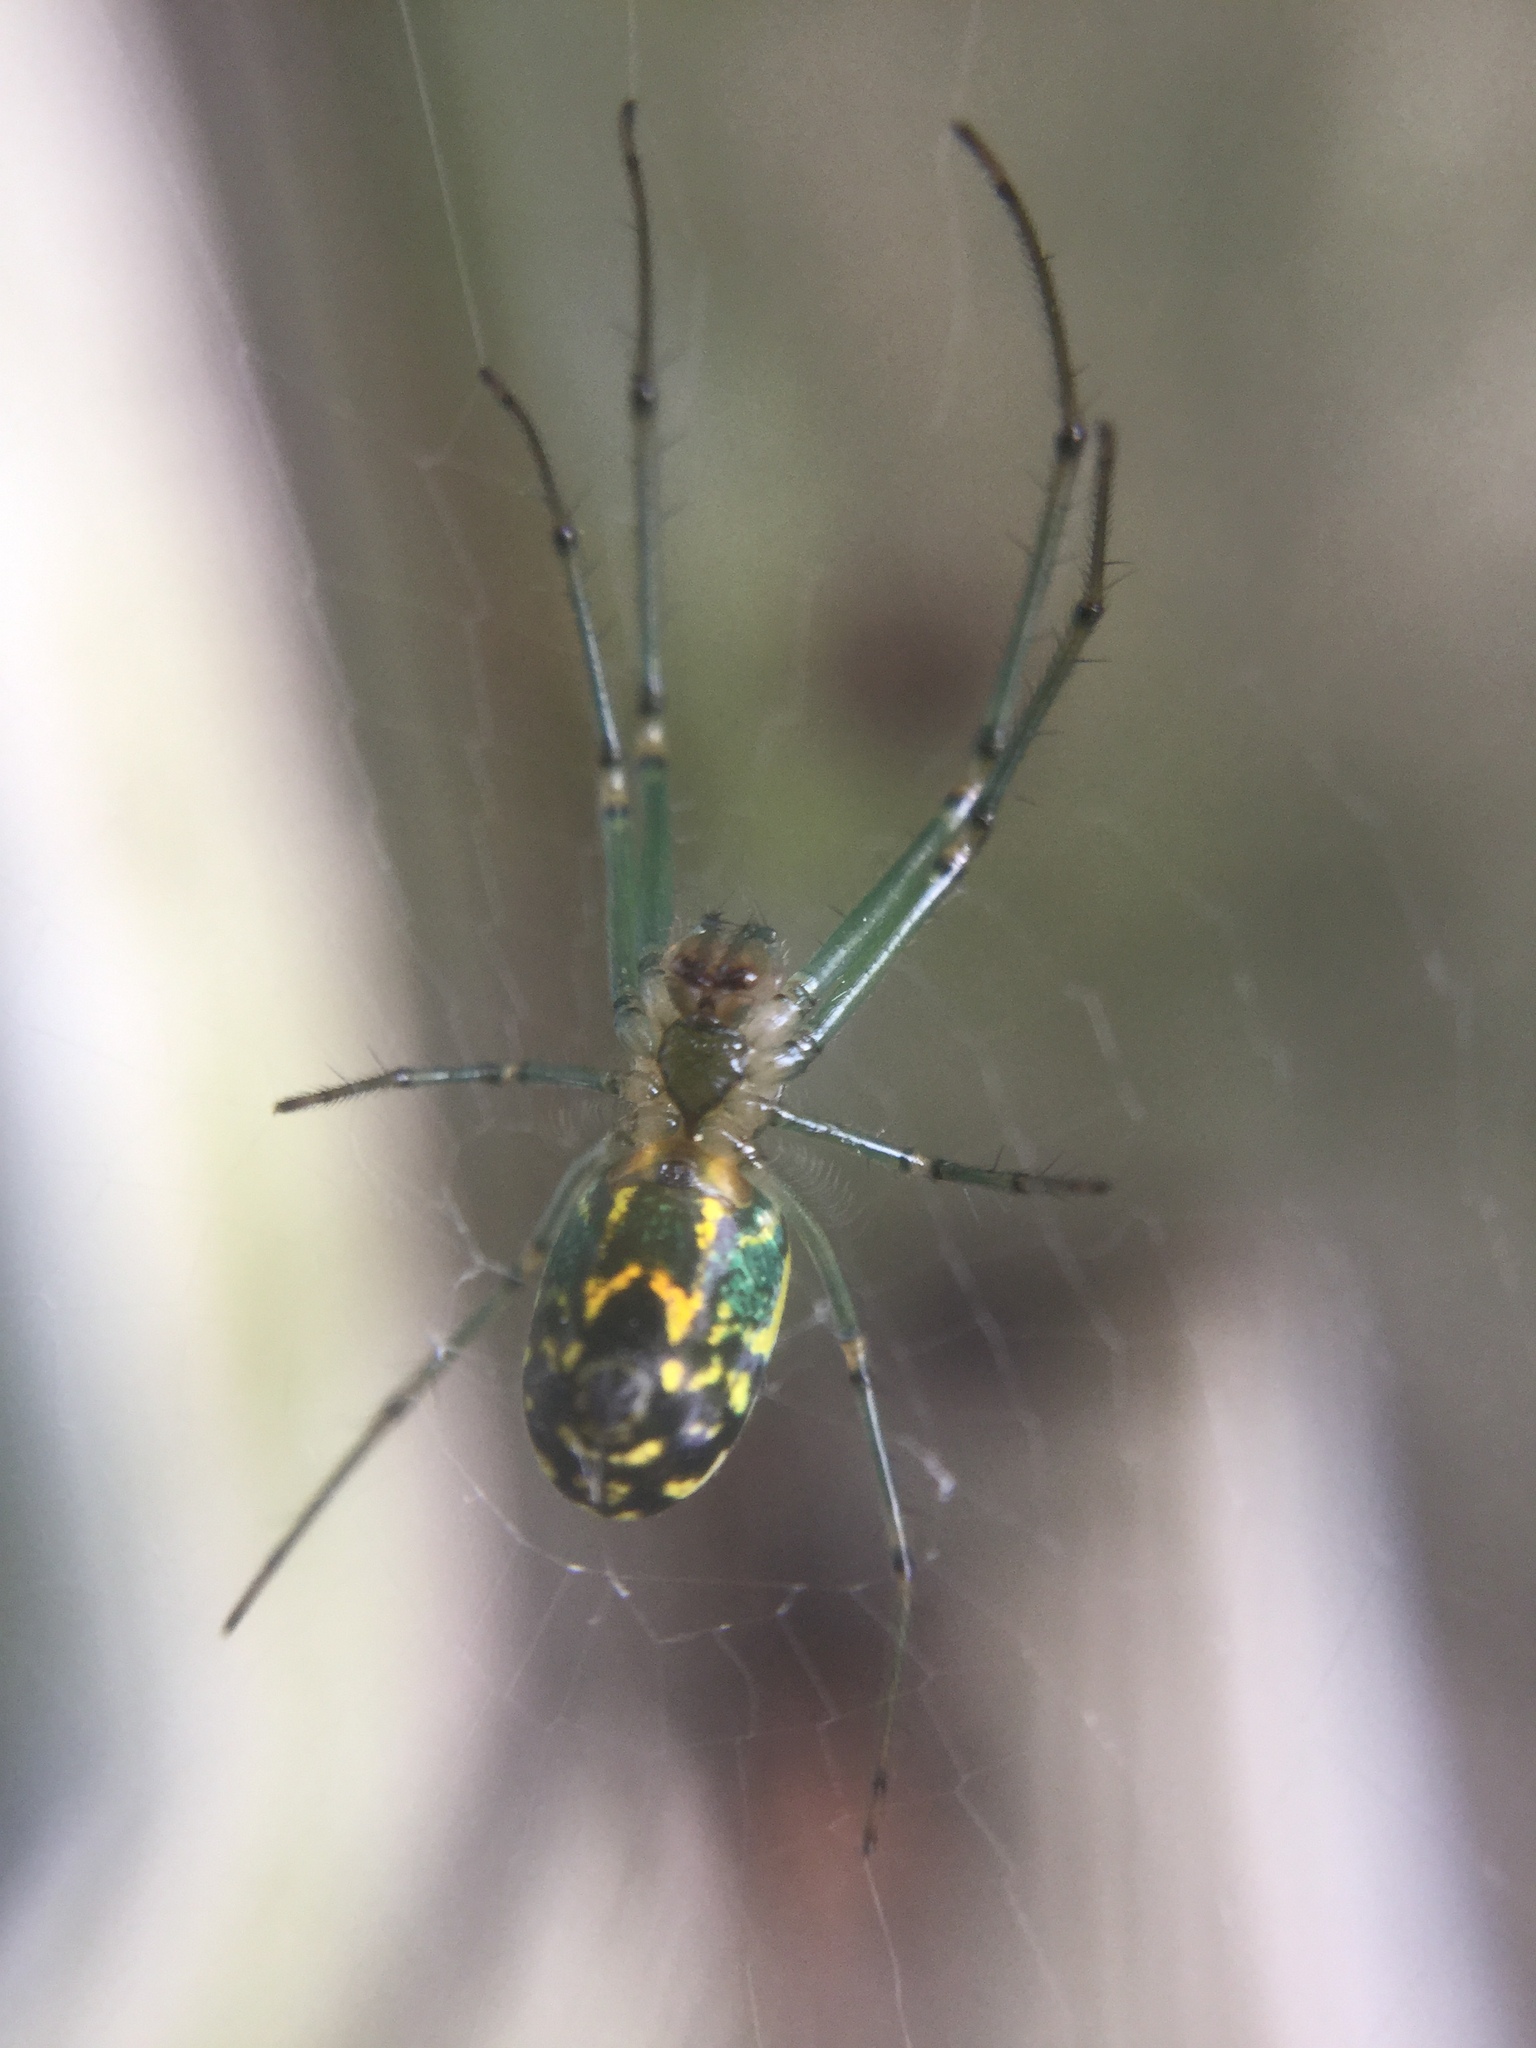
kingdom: Animalia
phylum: Arthropoda
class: Arachnida
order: Araneae
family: Tetragnathidae
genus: Leucauge
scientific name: Leucauge venusta
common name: Longjawed orb weavers
